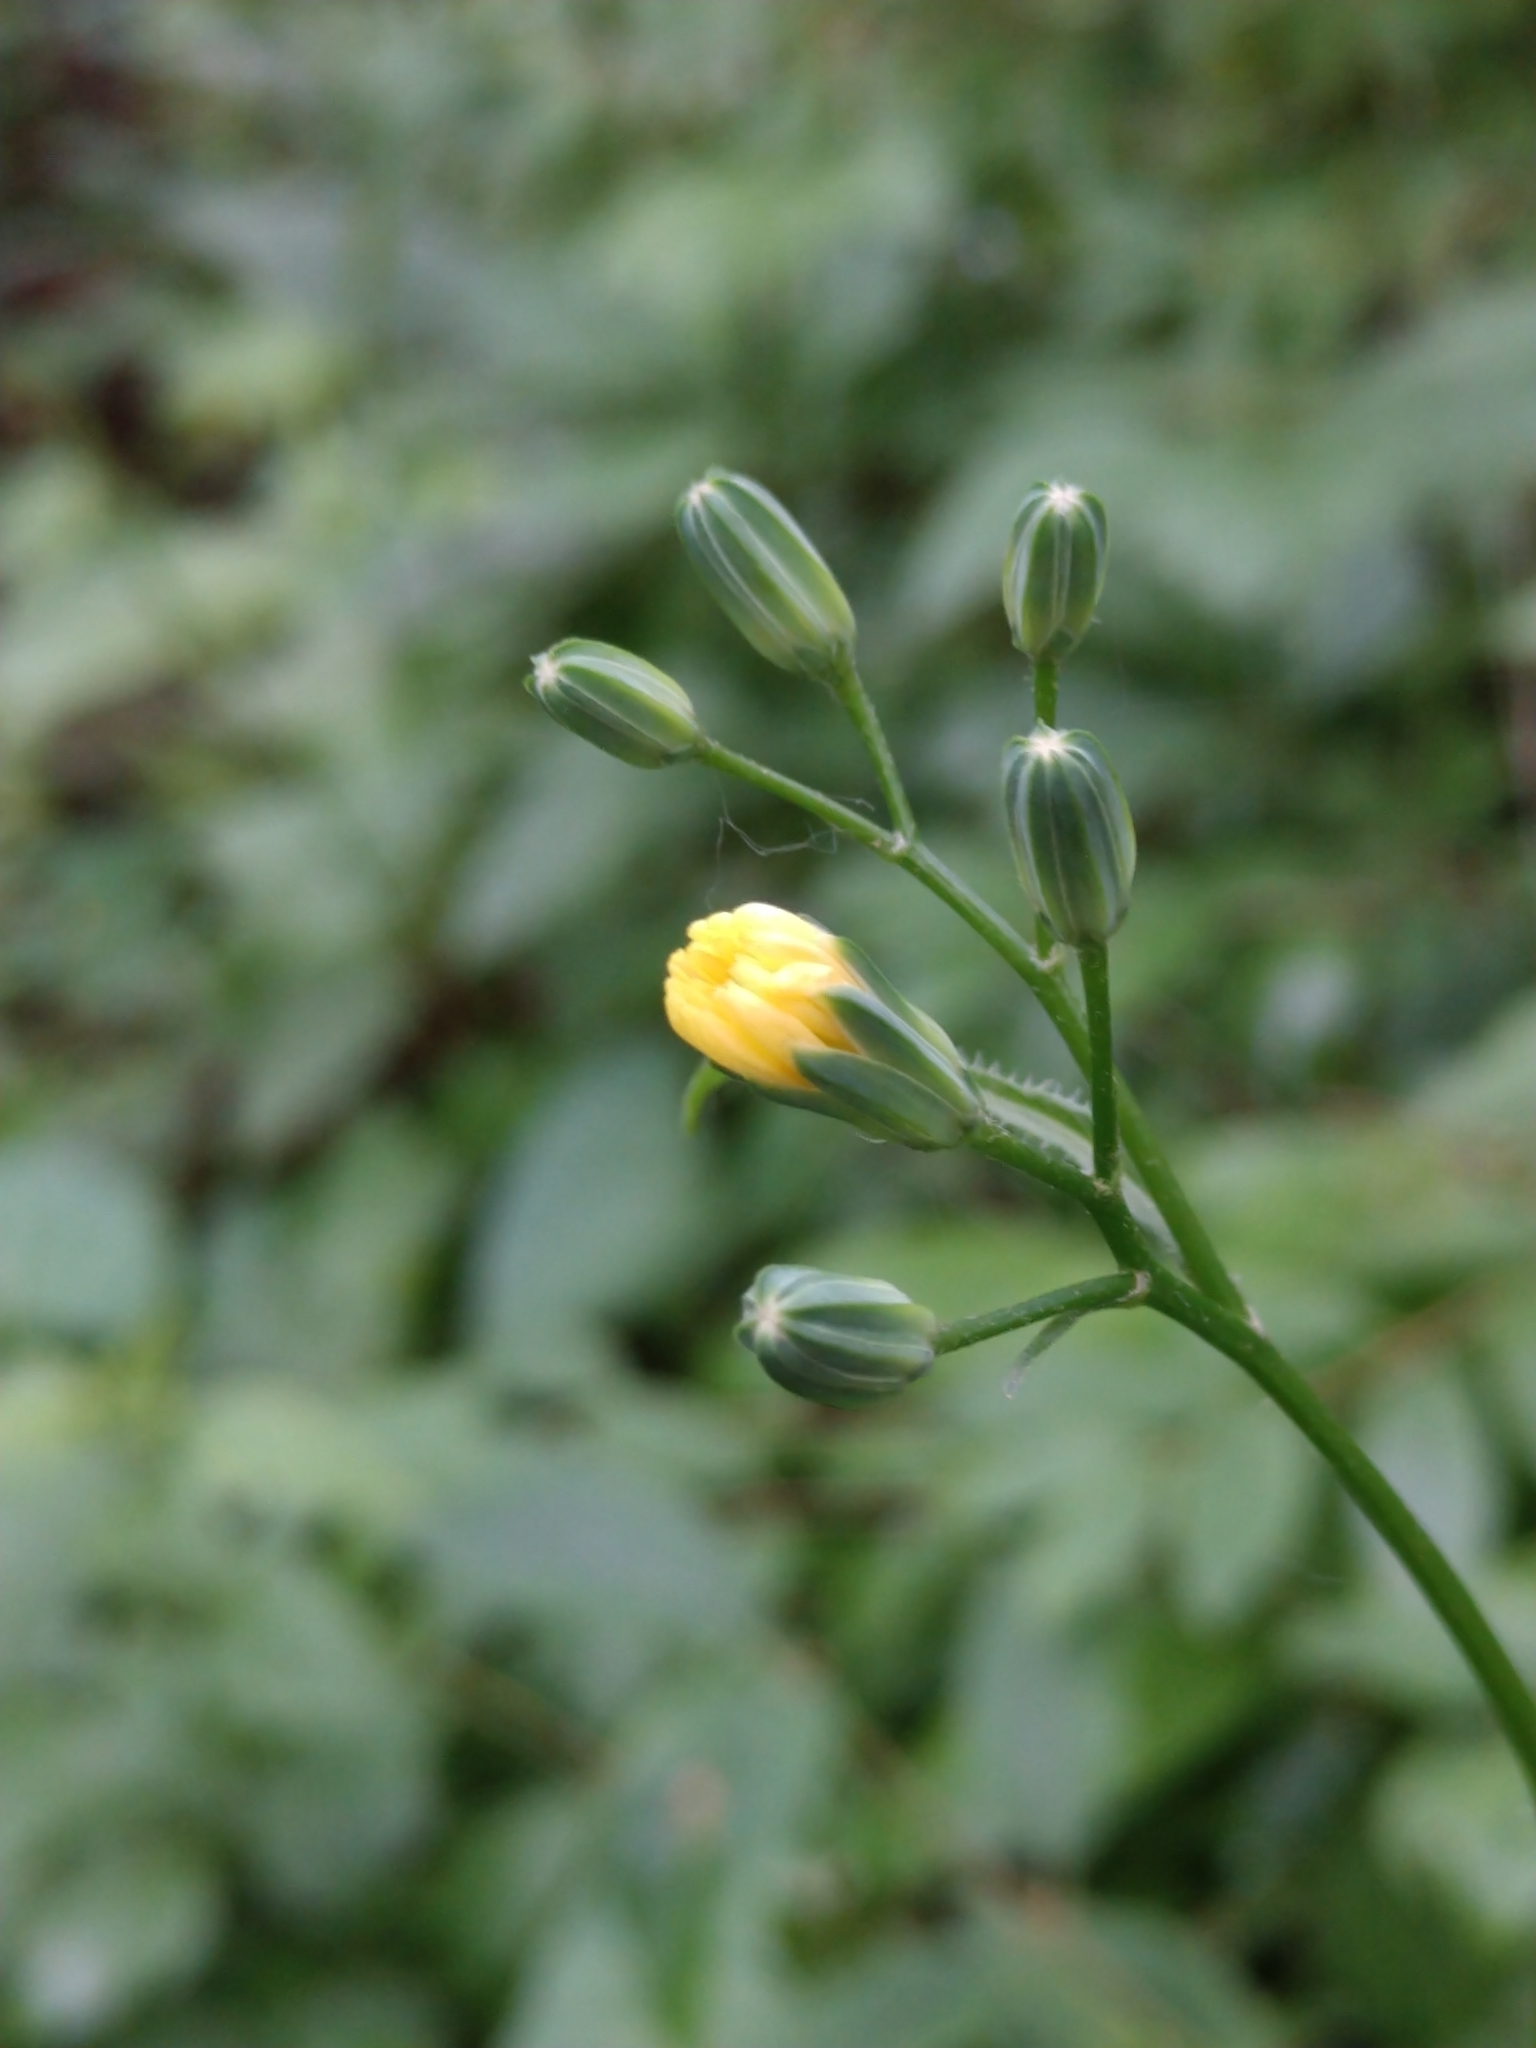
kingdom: Plantae
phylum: Tracheophyta
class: Magnoliopsida
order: Asterales
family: Asteraceae
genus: Lapsana
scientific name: Lapsana communis
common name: Nipplewort
